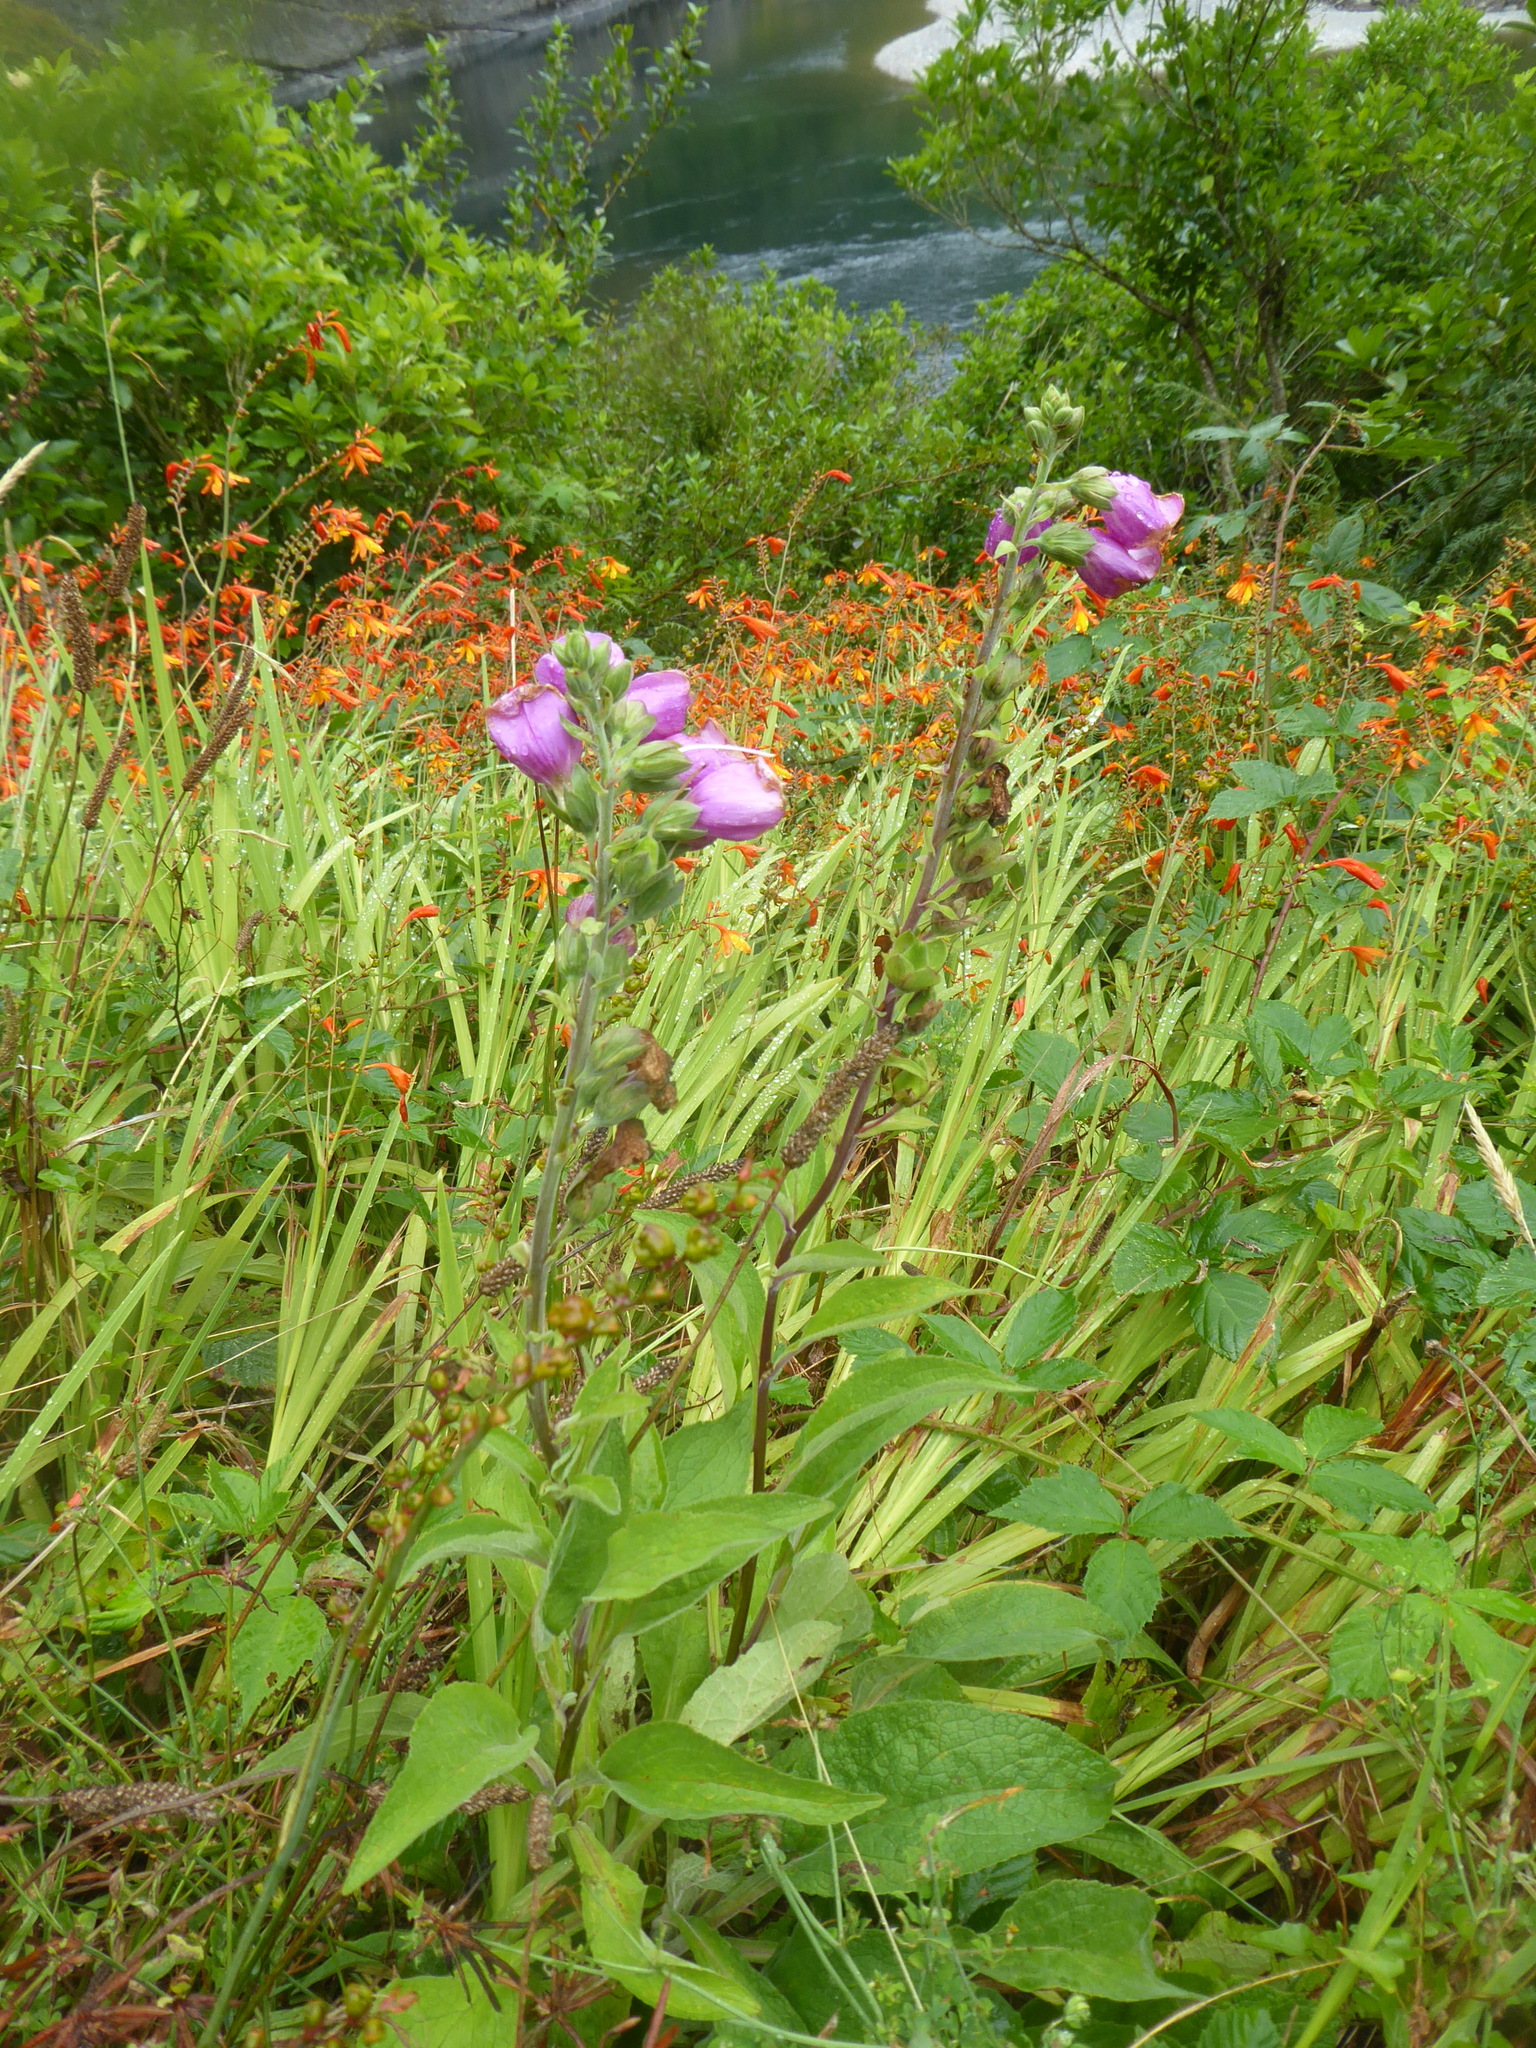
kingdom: Plantae
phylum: Tracheophyta
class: Magnoliopsida
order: Lamiales
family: Plantaginaceae
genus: Digitalis
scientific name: Digitalis purpurea
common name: Foxglove
